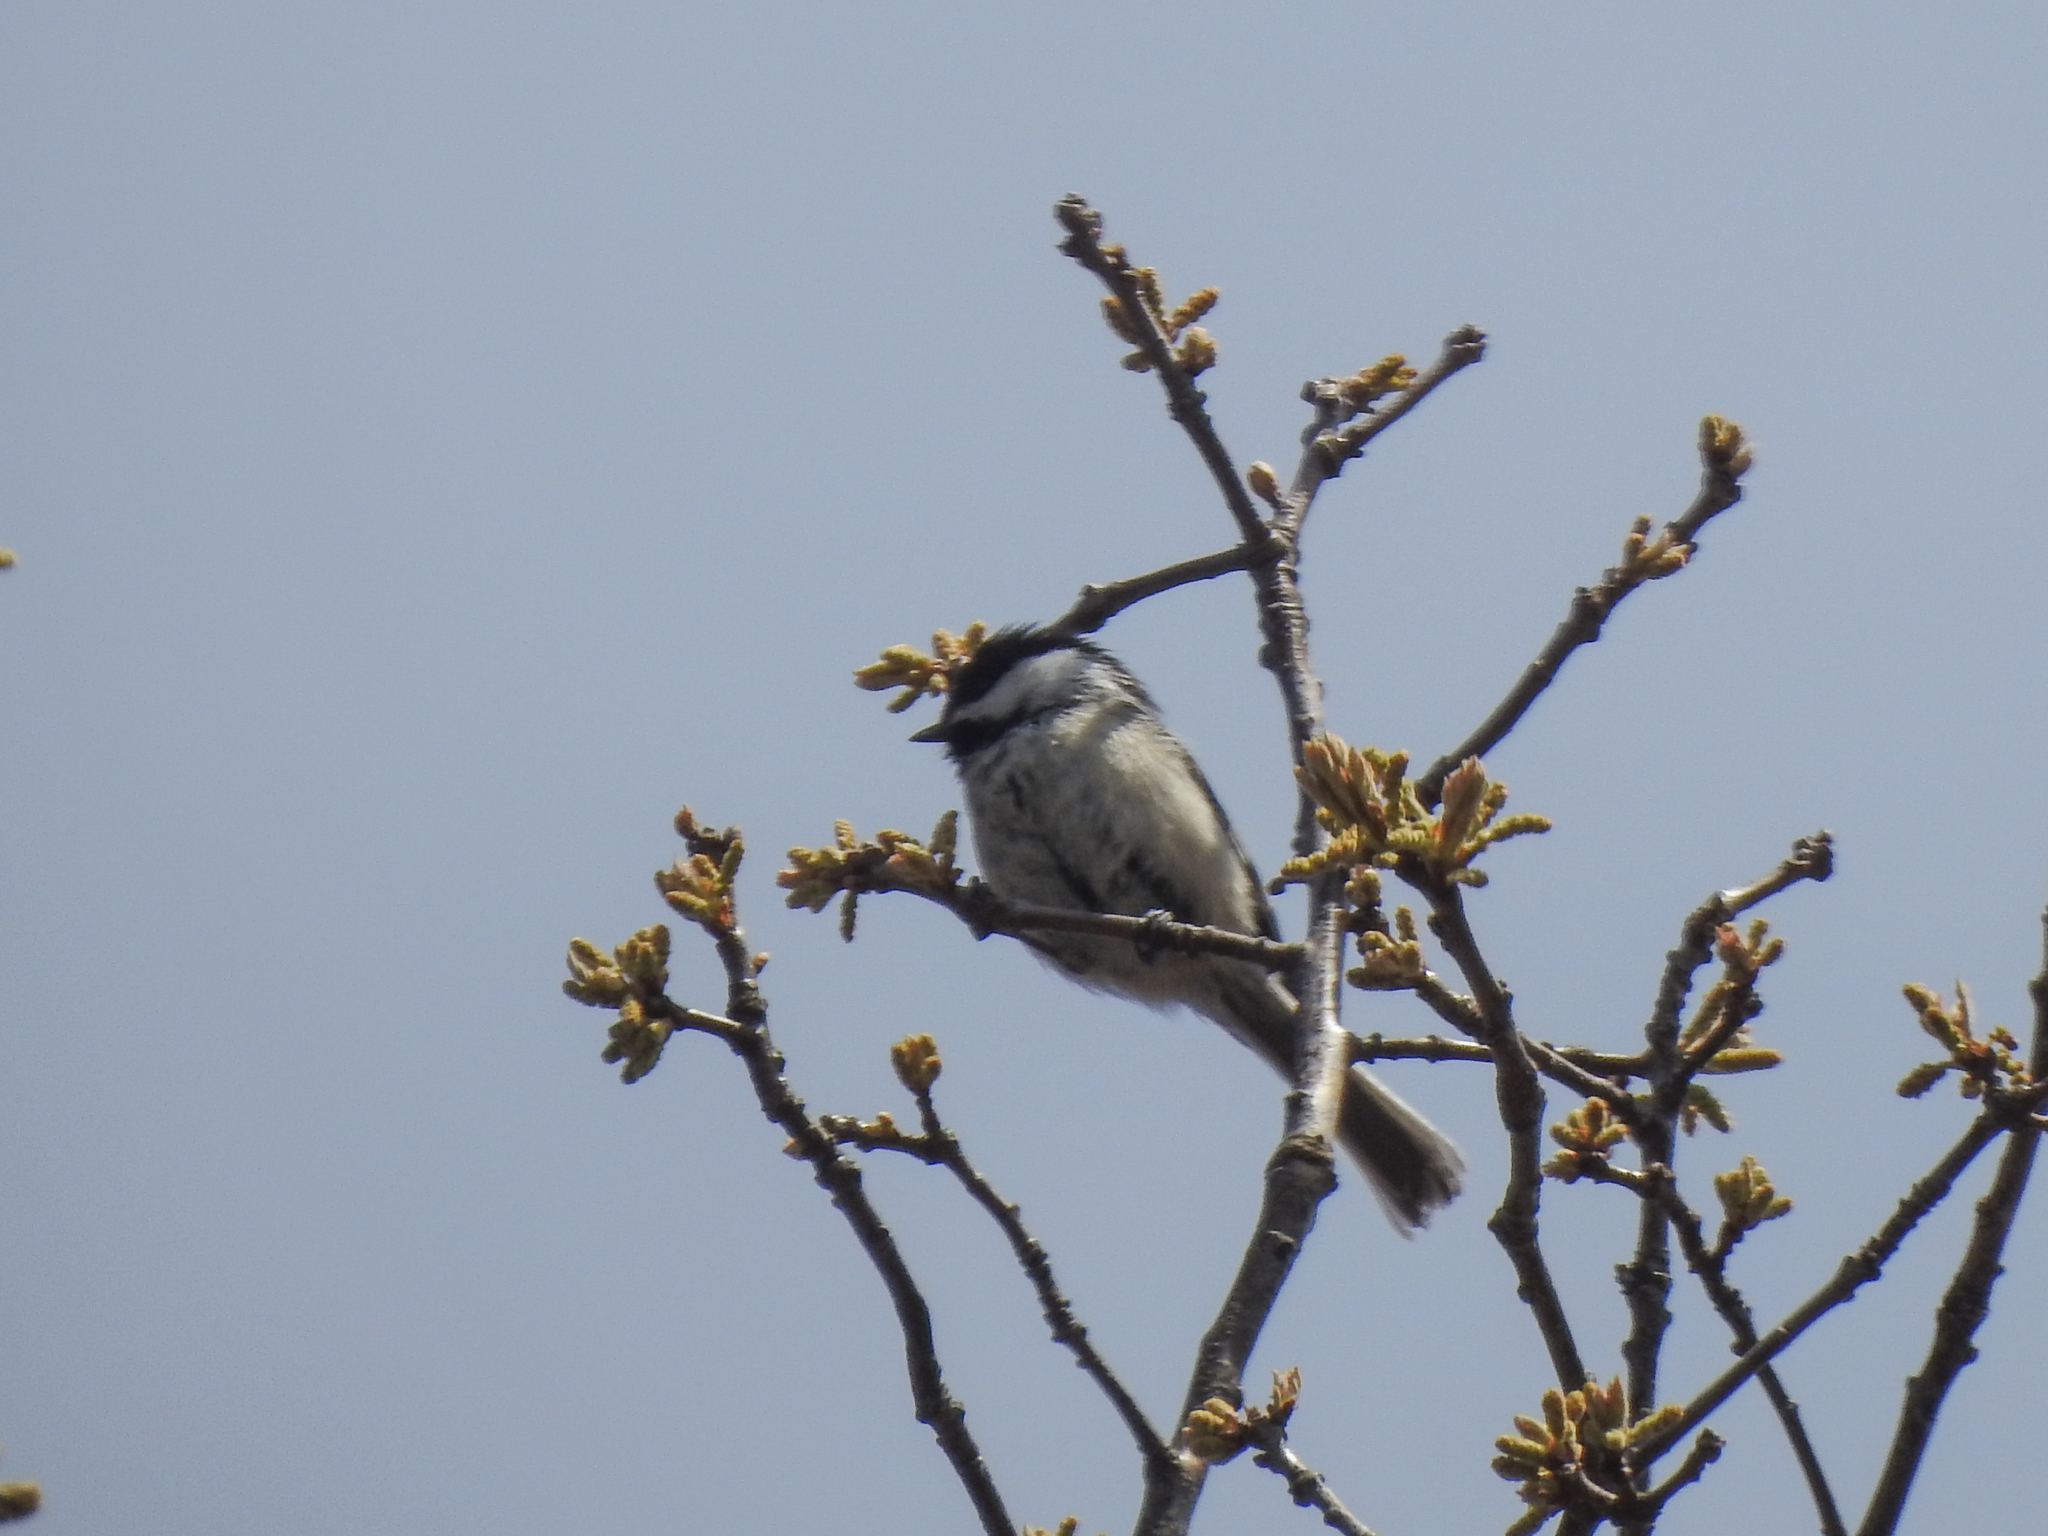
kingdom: Animalia
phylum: Chordata
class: Aves
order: Passeriformes
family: Paridae
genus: Poecile
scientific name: Poecile atricapillus
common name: Black-capped chickadee
